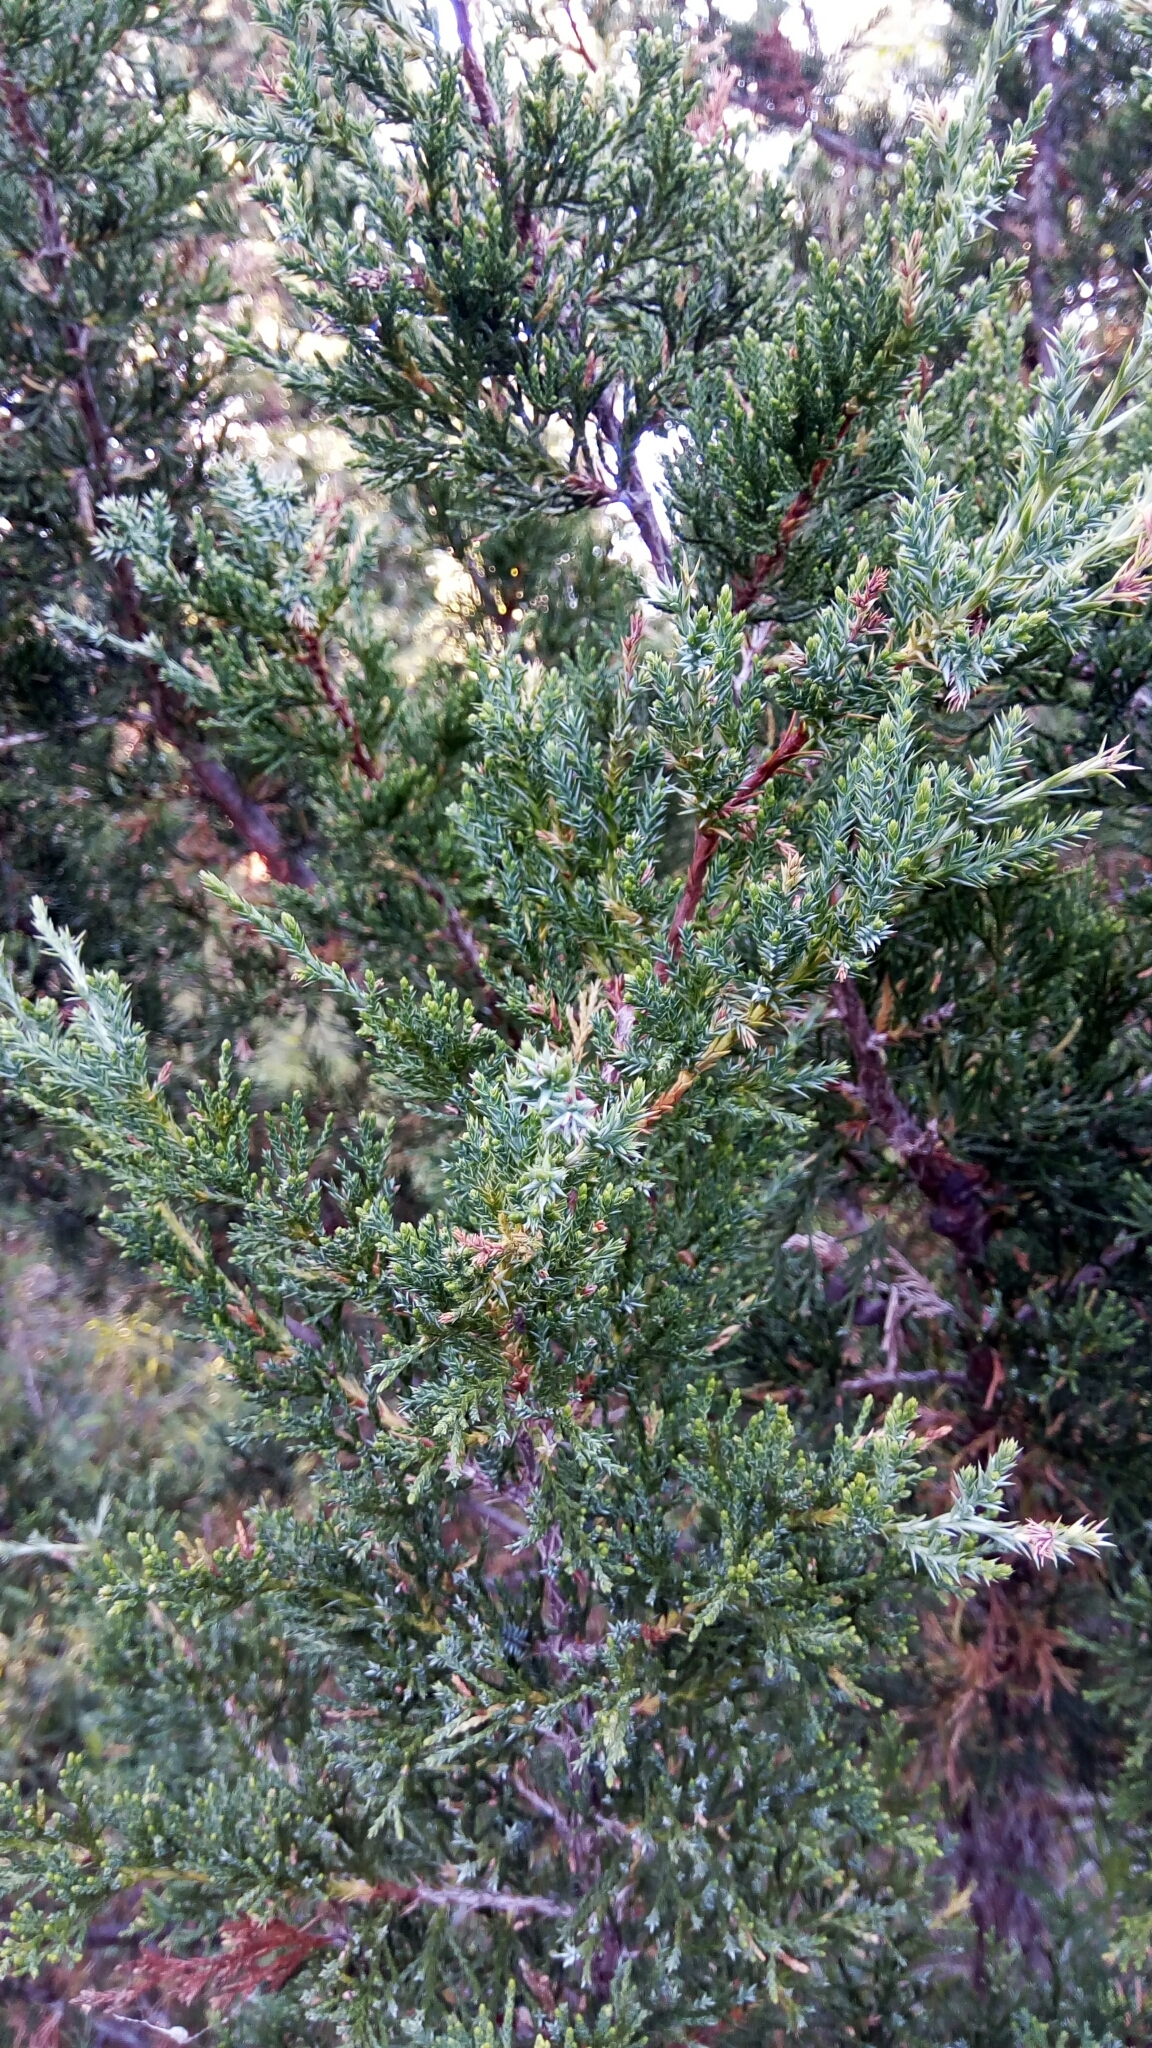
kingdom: Plantae
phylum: Tracheophyta
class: Pinopsida
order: Pinales
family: Cupressaceae
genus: Juniperus
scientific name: Juniperus virginiana
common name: Red juniper
